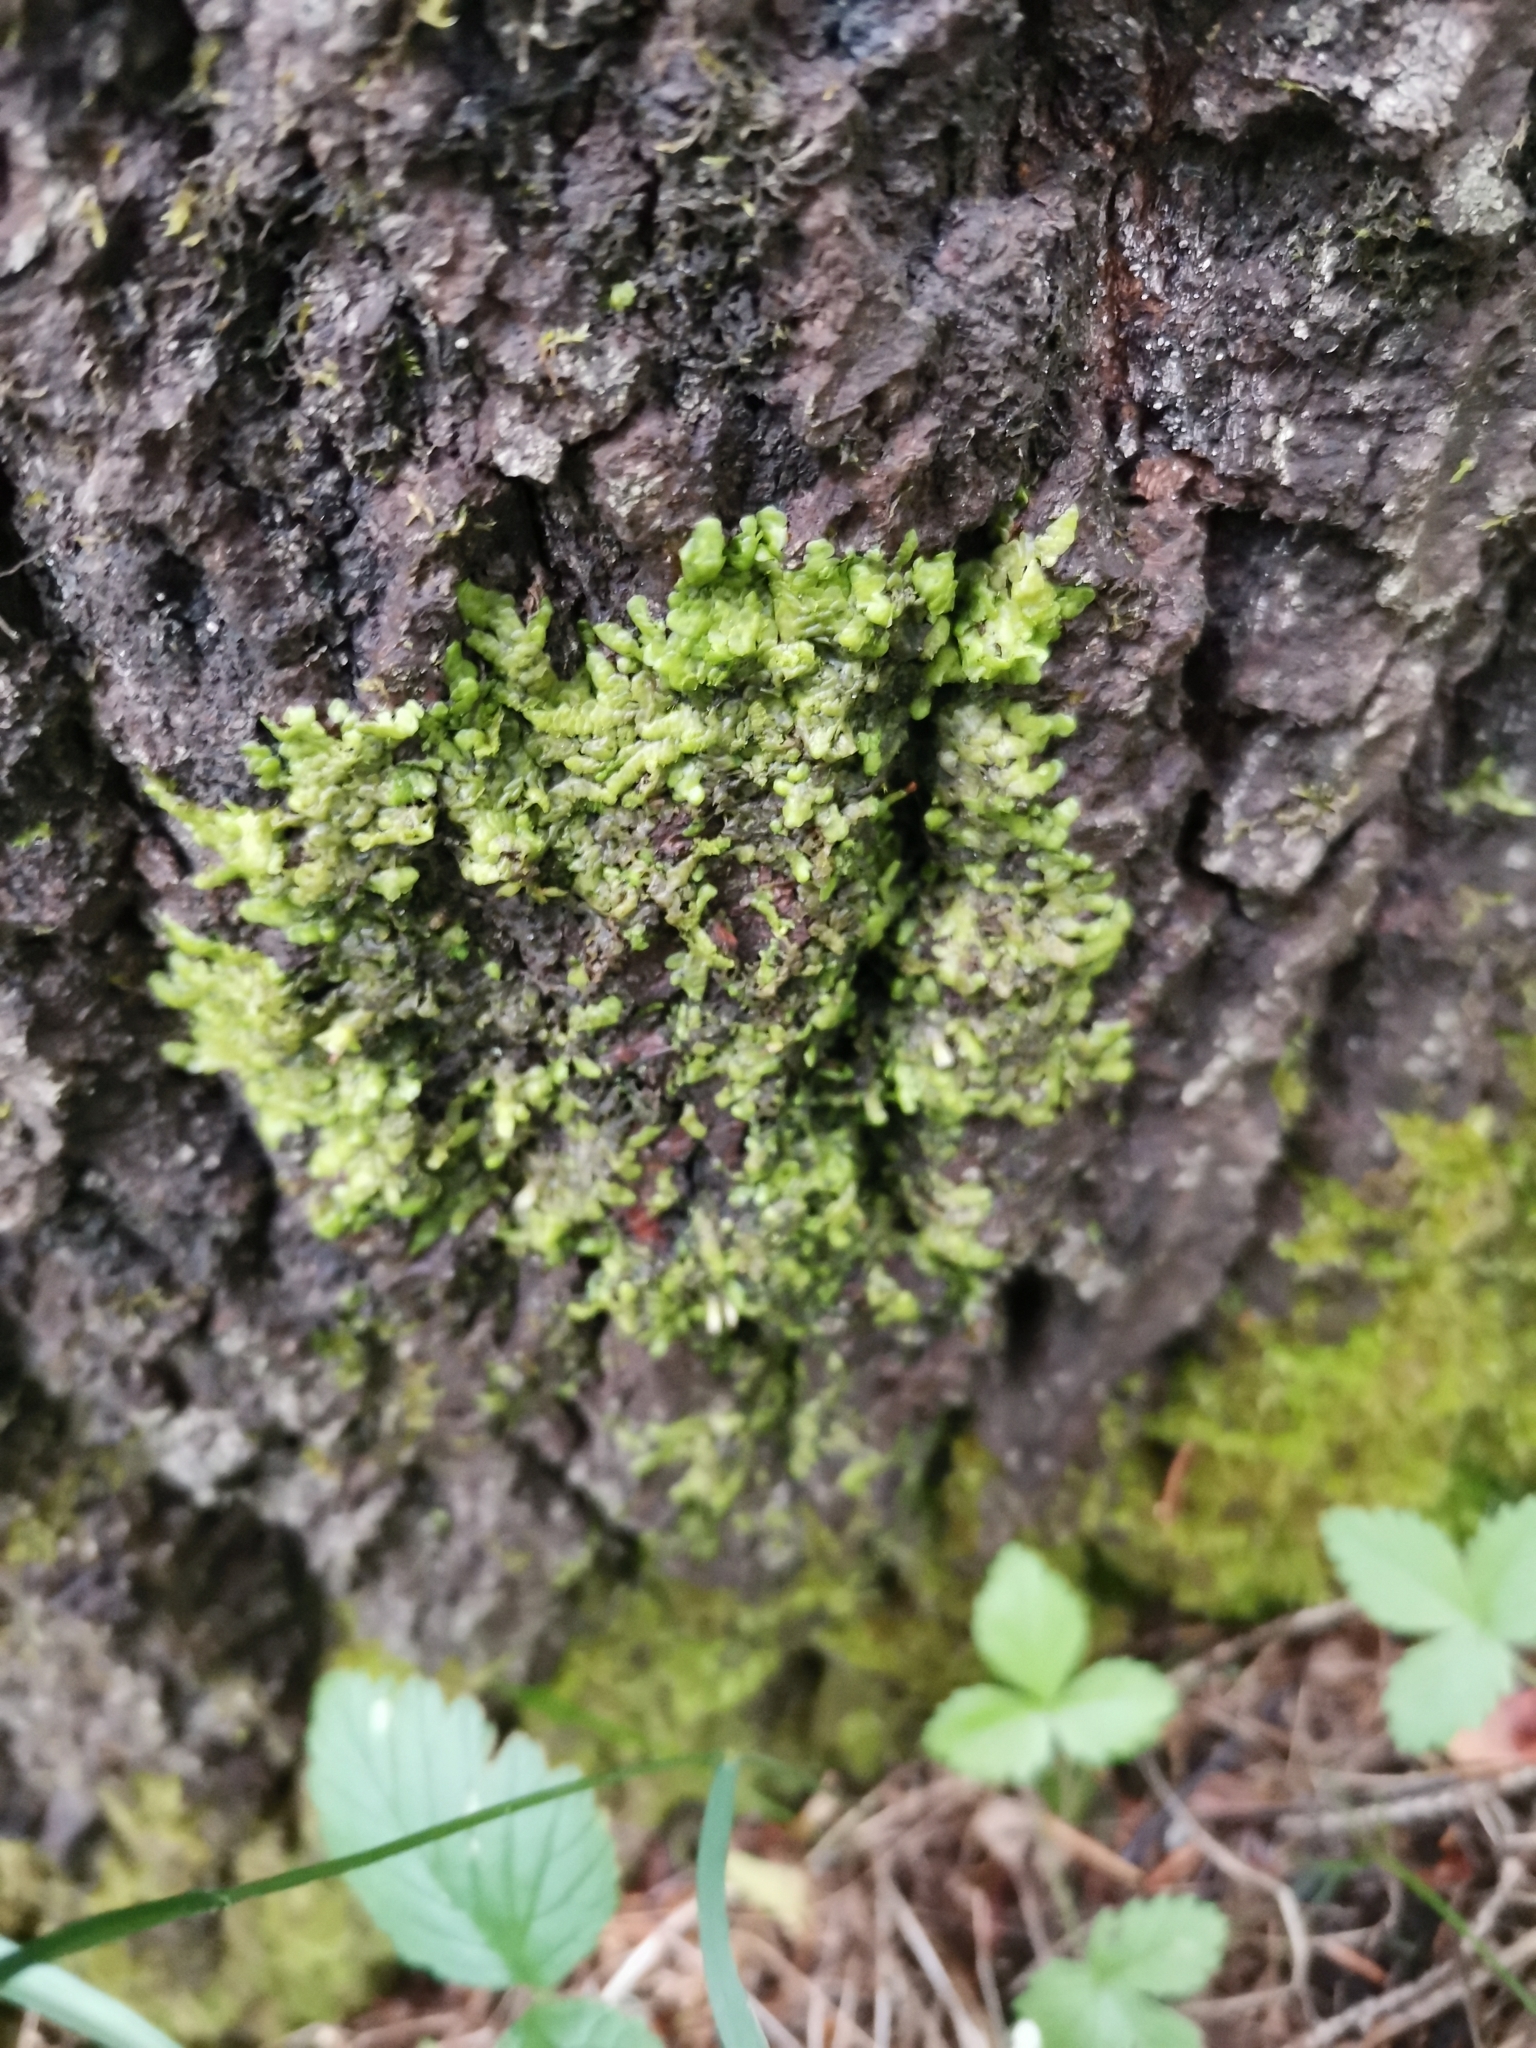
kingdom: Plantae
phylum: Marchantiophyta
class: Jungermanniopsida
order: Porellales
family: Radulaceae
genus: Radula
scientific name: Radula complanata
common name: Flat-leaved scalewort
